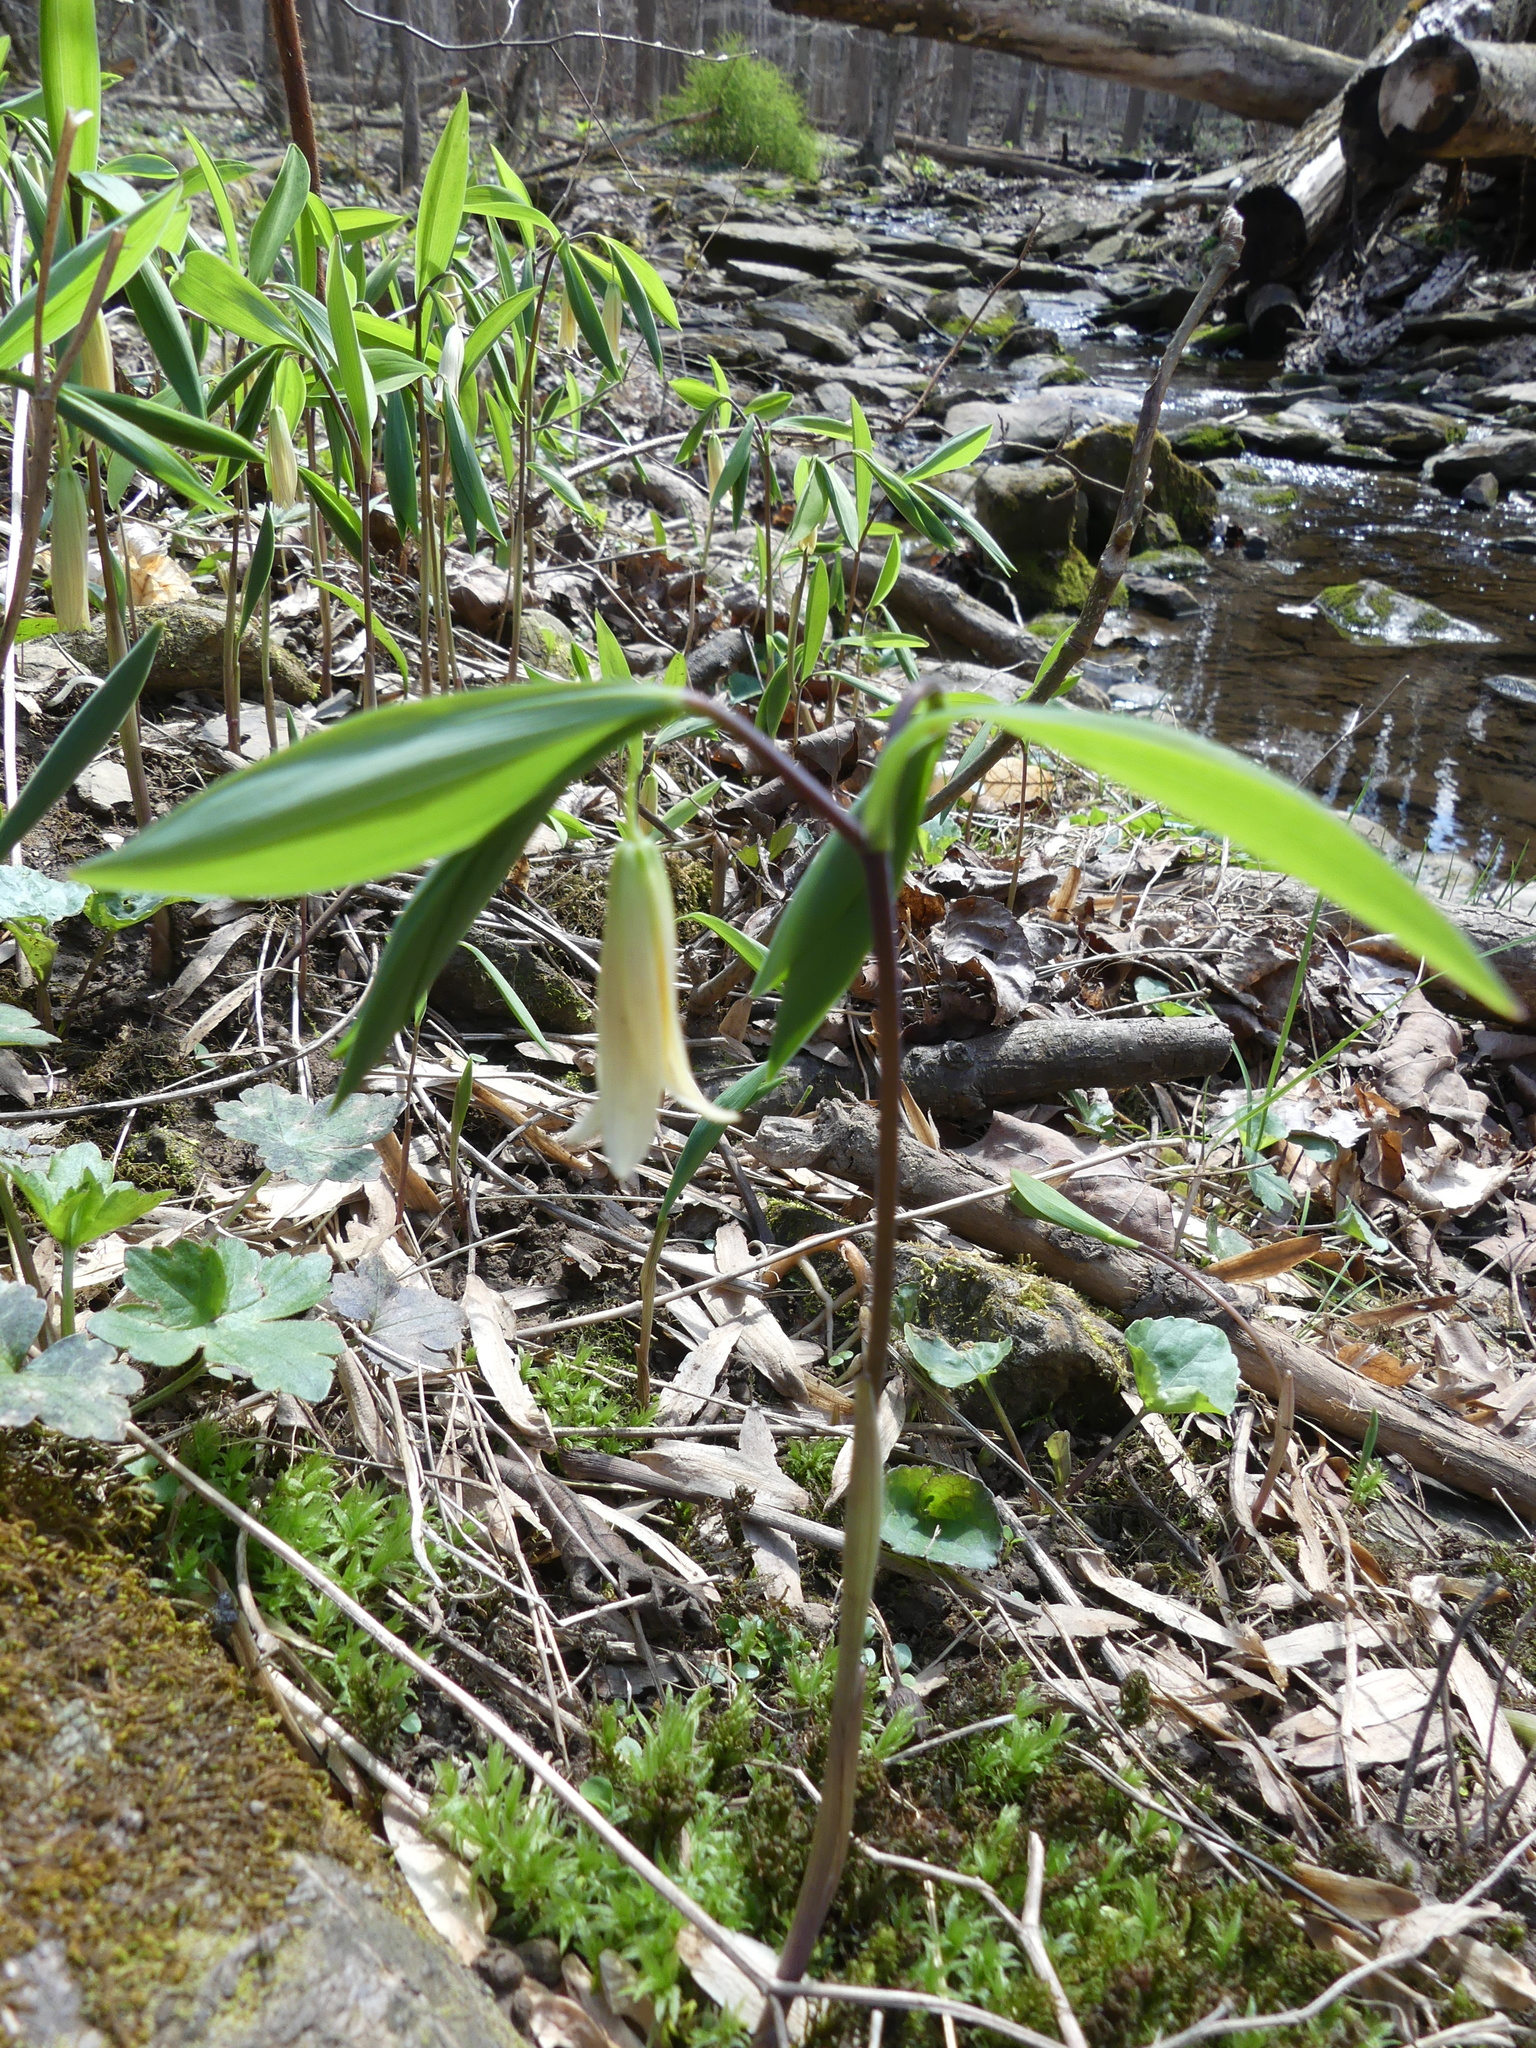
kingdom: Plantae
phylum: Tracheophyta
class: Liliopsida
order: Liliales
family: Colchicaceae
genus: Uvularia
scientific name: Uvularia sessilifolia
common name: Straw-lily
